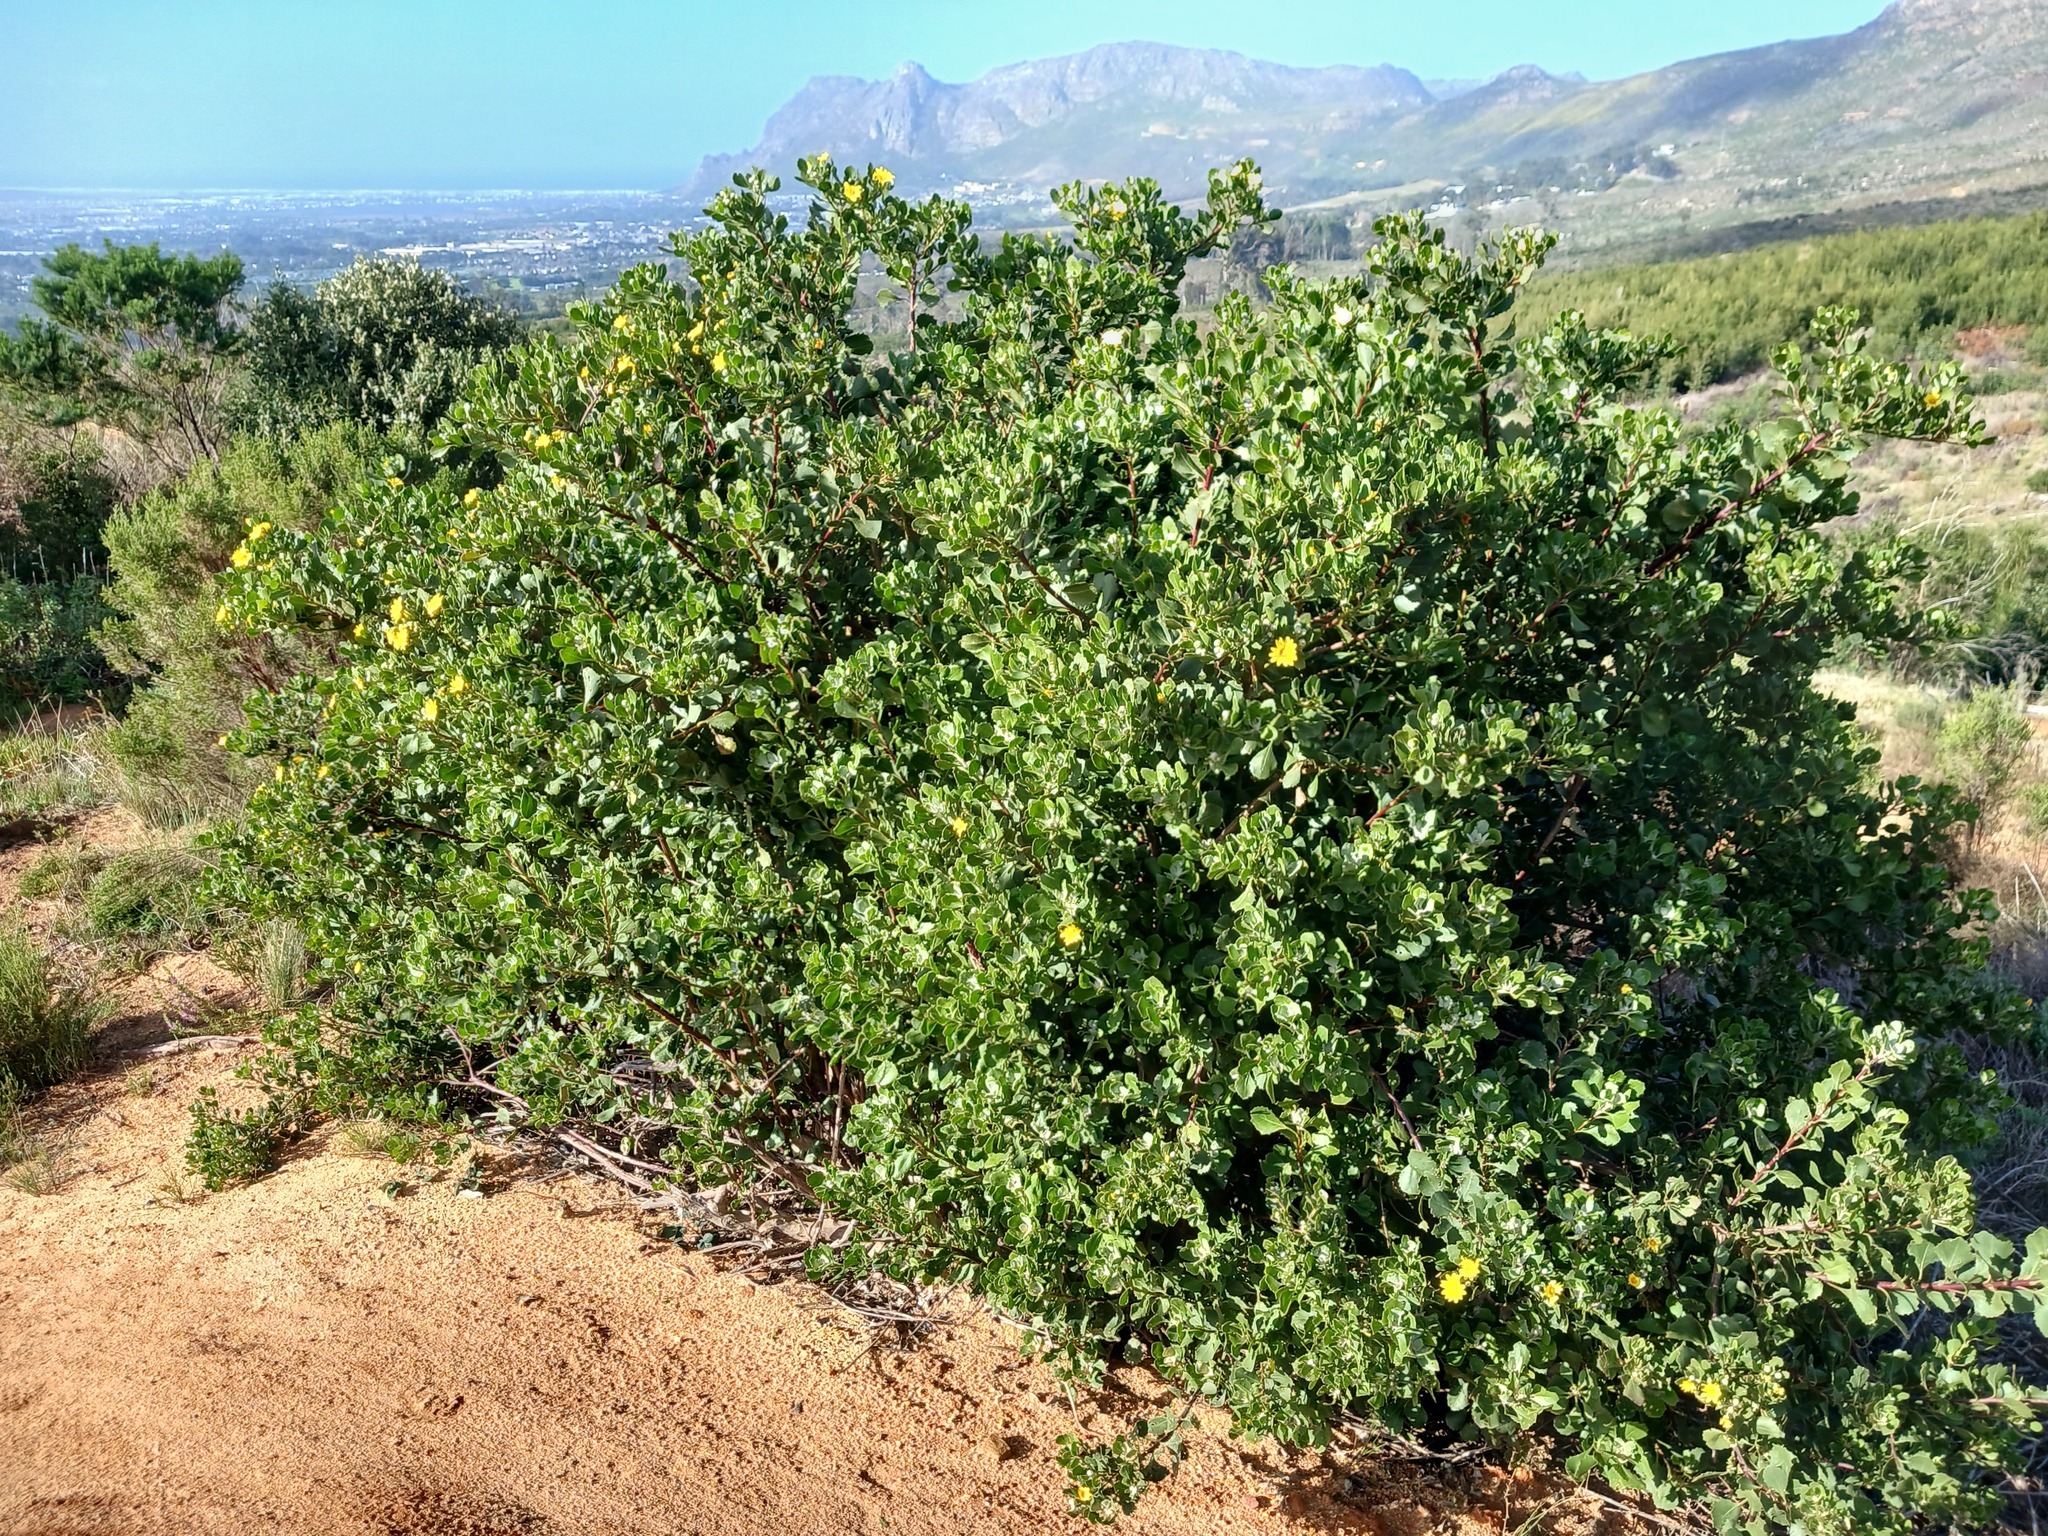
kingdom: Plantae
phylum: Tracheophyta
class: Magnoliopsida
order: Asterales
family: Asteraceae
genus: Osteospermum
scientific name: Osteospermum moniliferum
